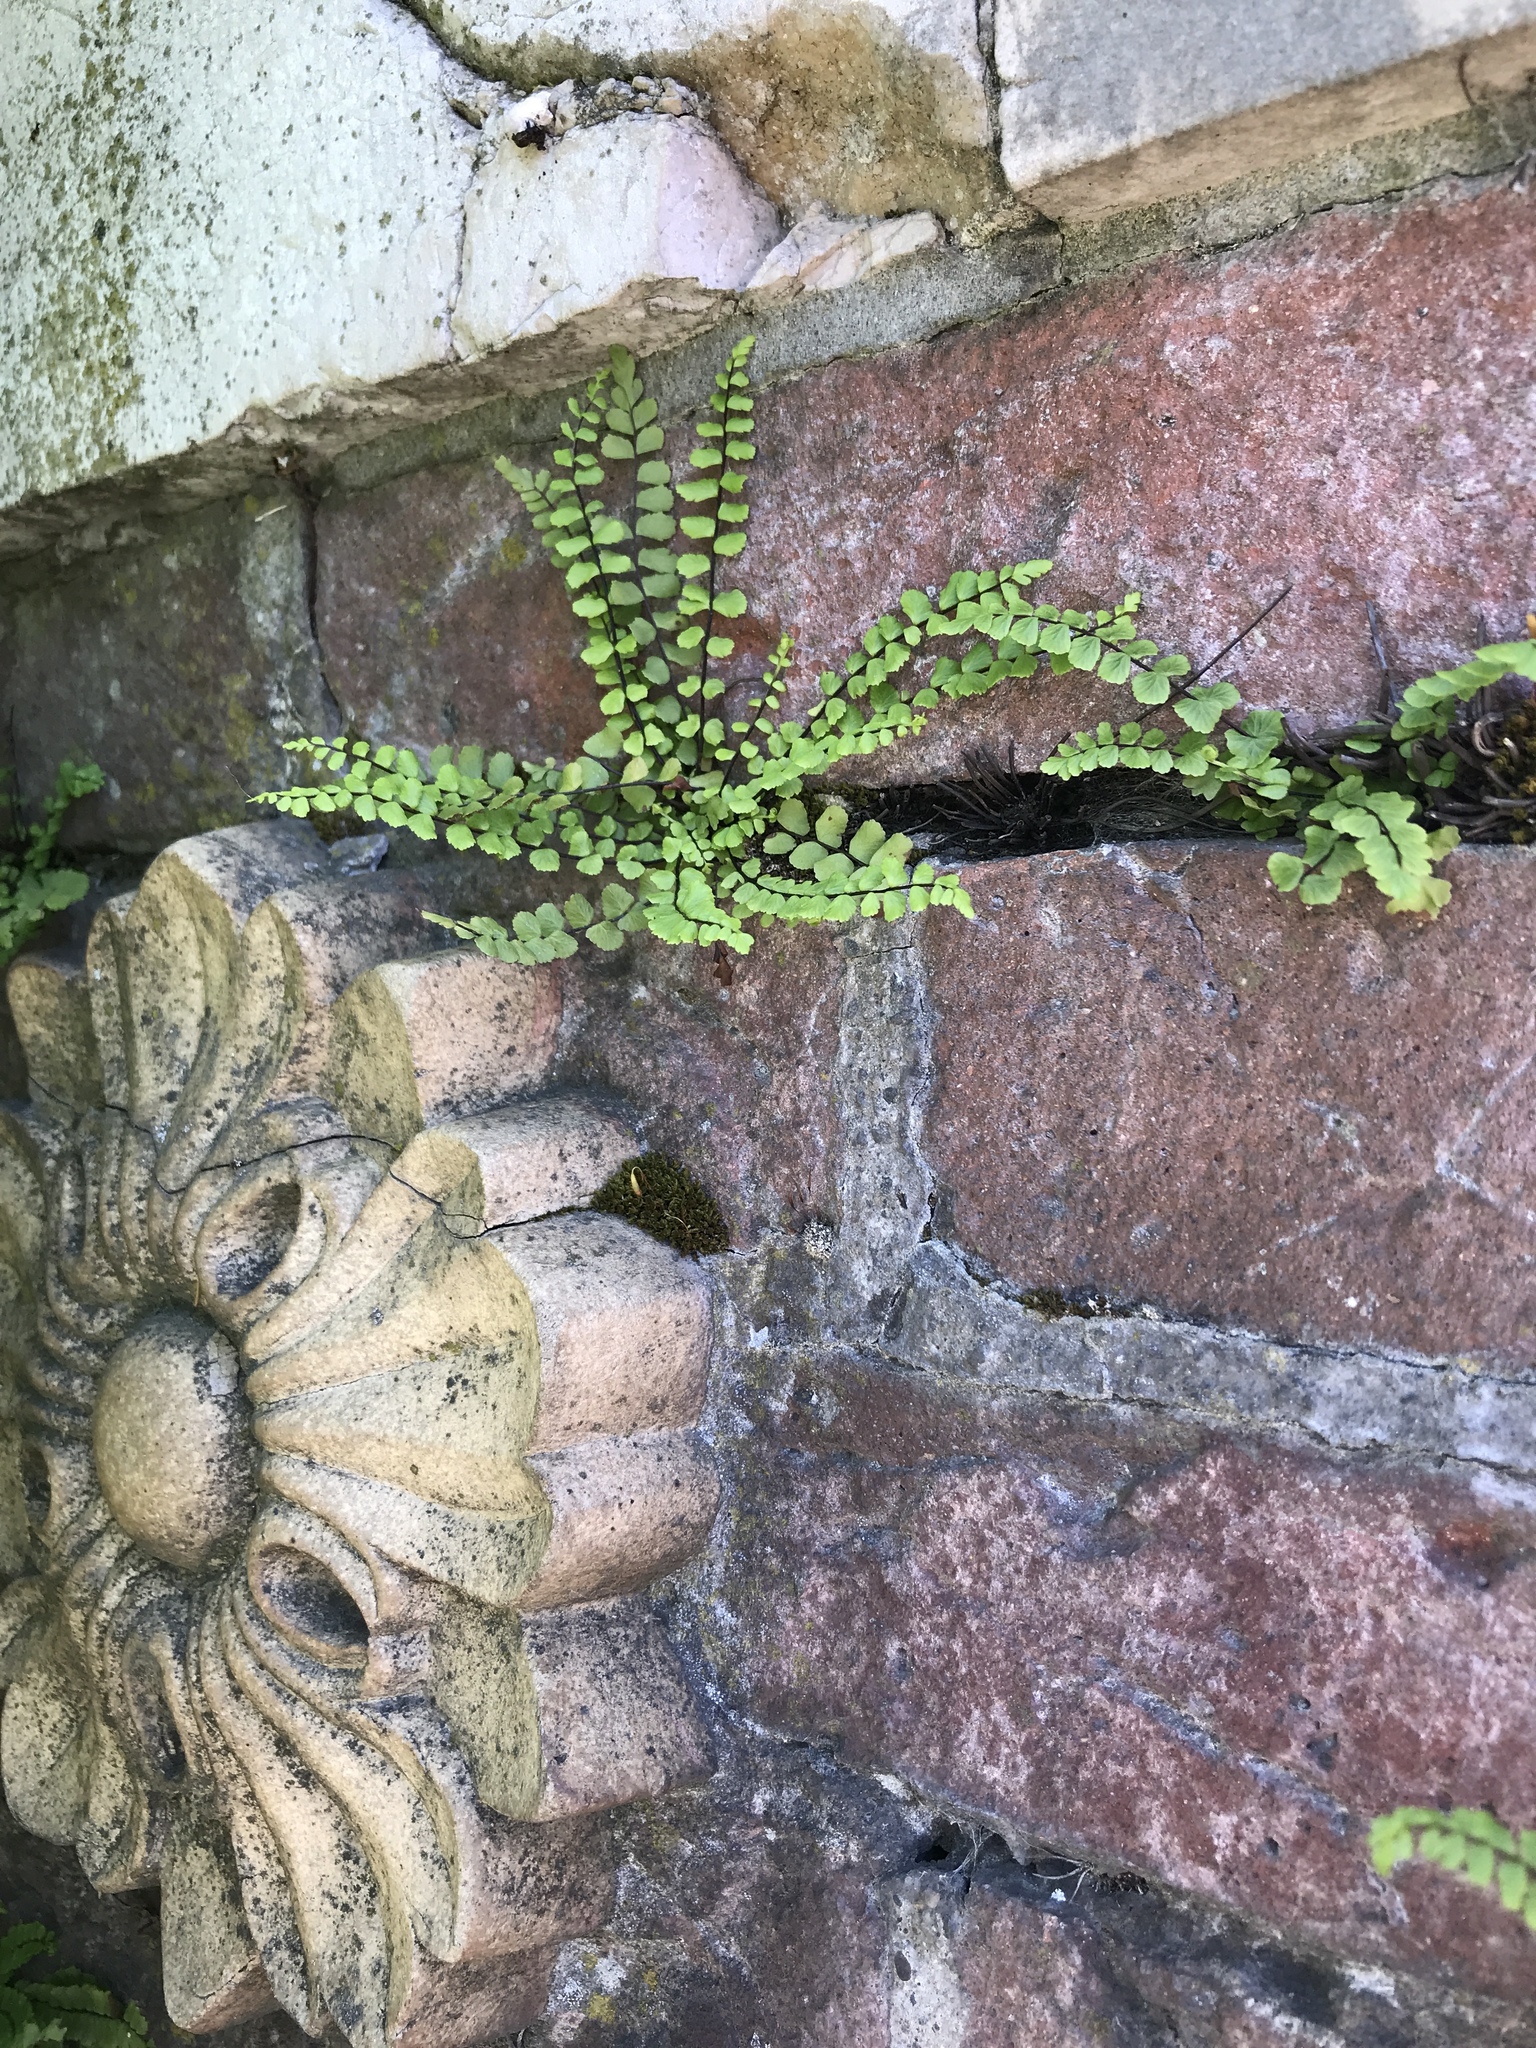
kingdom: Plantae
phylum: Tracheophyta
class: Polypodiopsida
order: Polypodiales
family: Aspleniaceae
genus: Asplenium
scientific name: Asplenium trichomanes
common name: Maidenhair spleenwort
